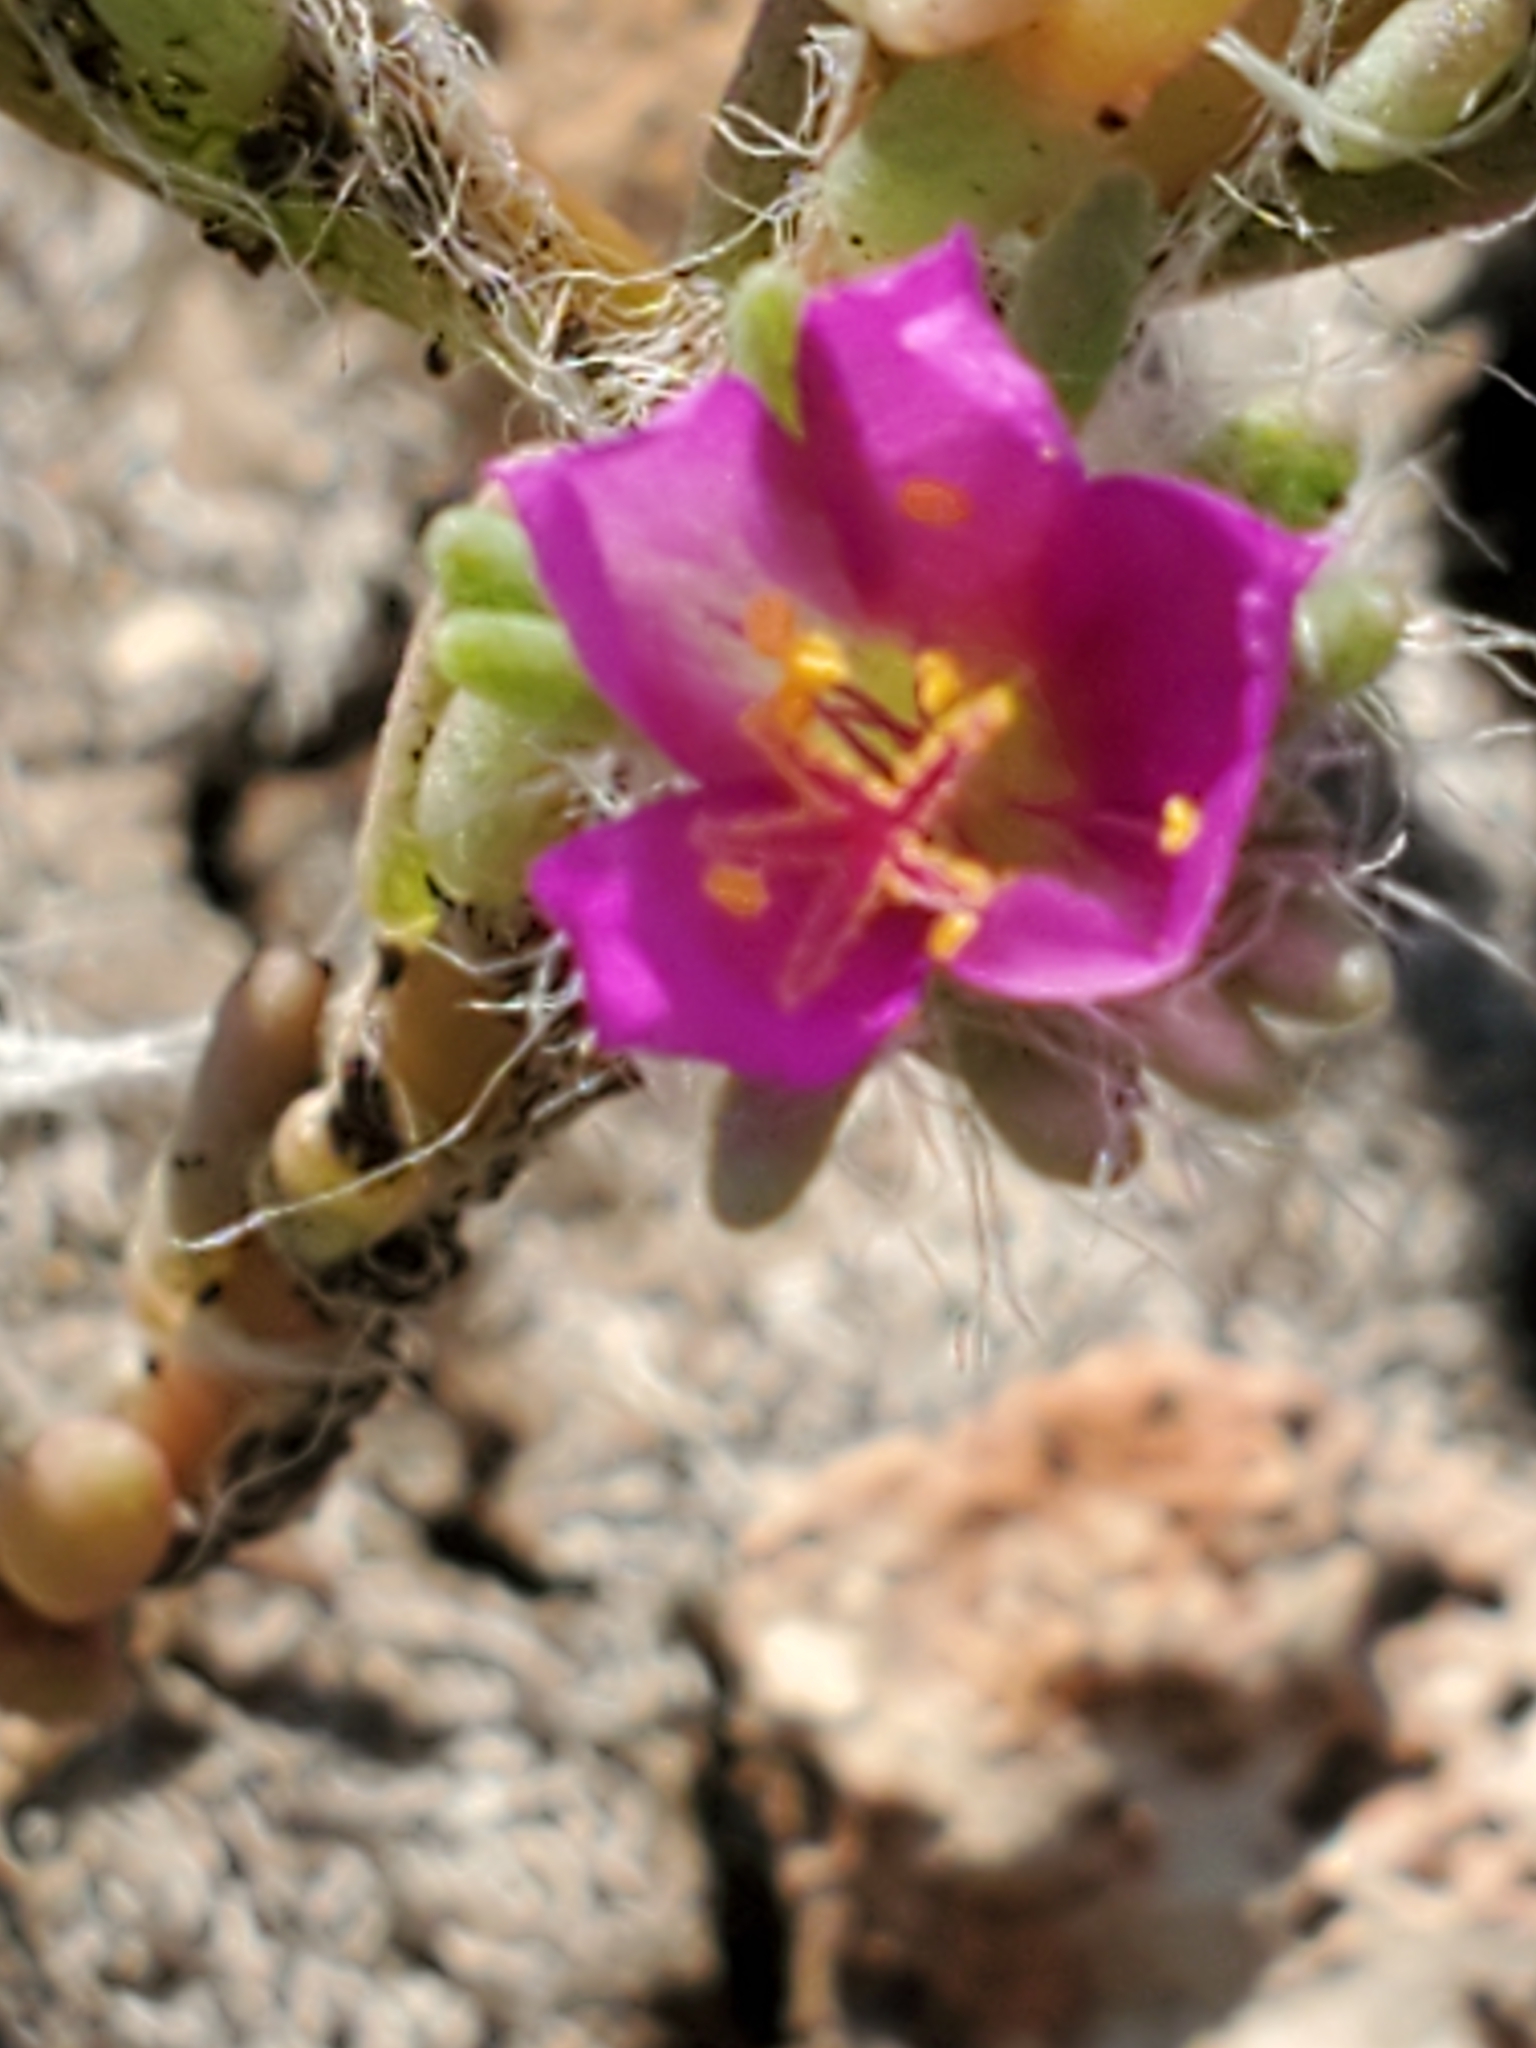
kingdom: Plantae
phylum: Tracheophyta
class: Magnoliopsida
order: Caryophyllales
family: Portulacaceae
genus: Portulaca
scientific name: Portulaca pilosa
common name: Kiss me quick
